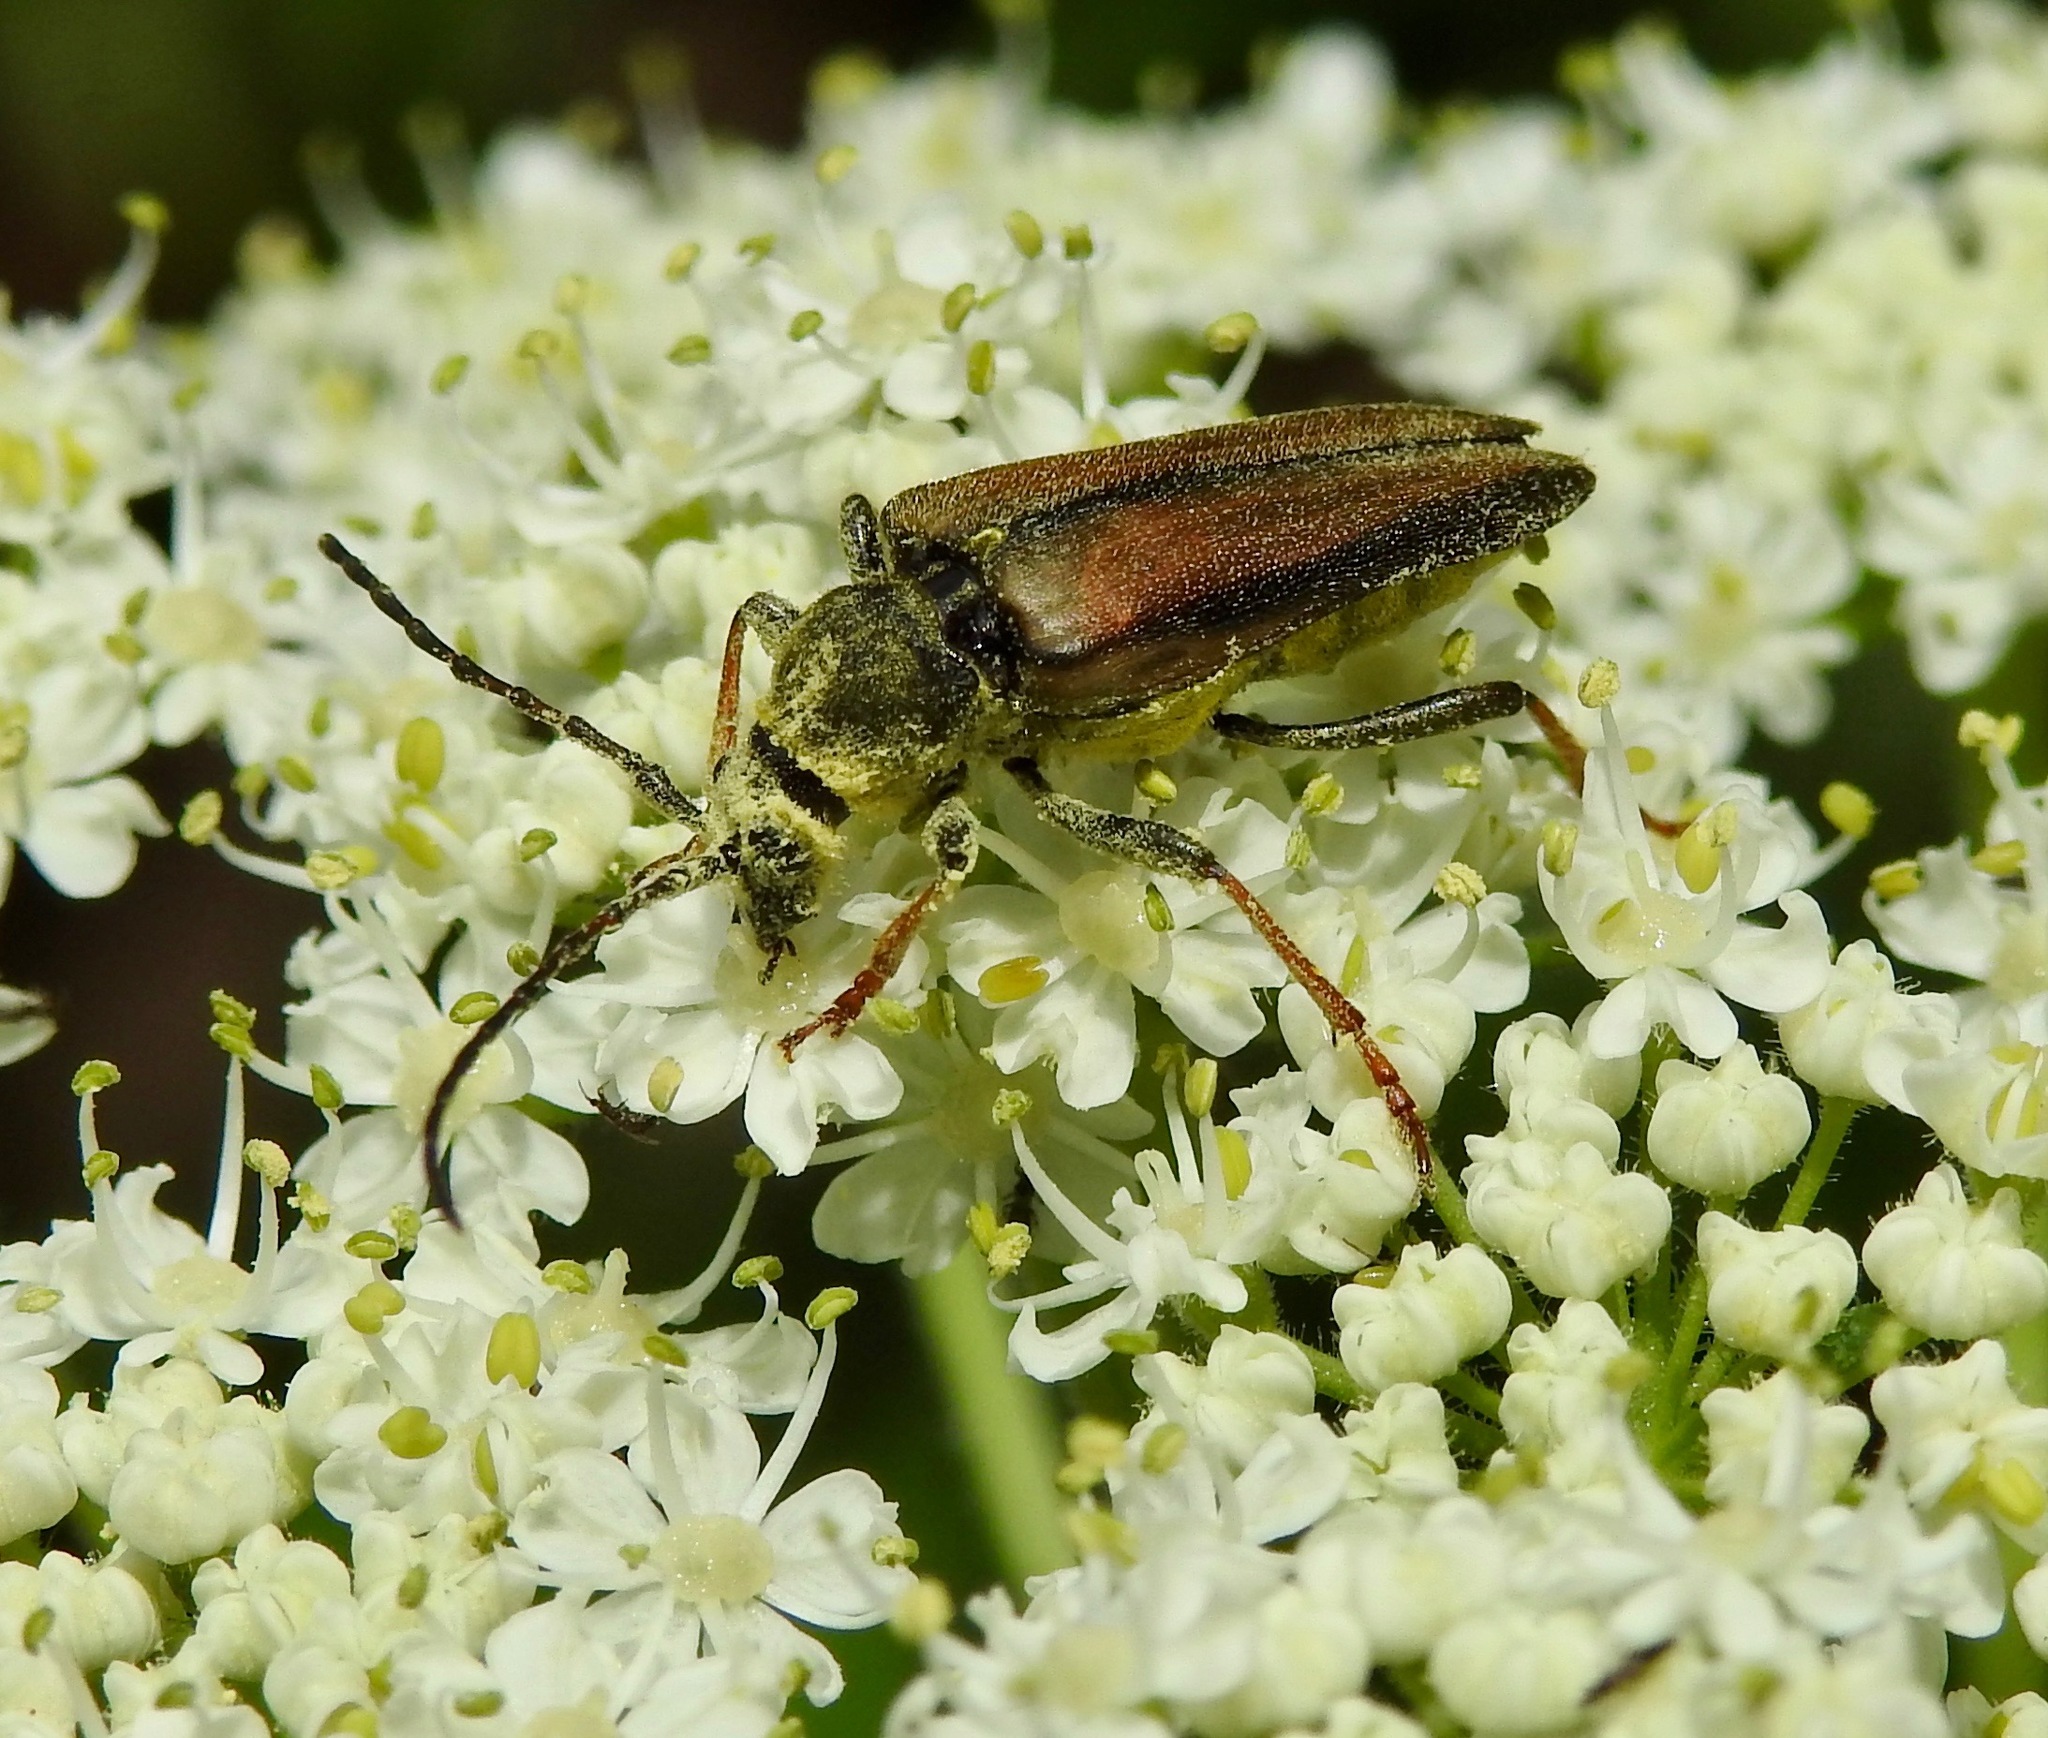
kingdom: Animalia
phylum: Arthropoda
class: Insecta
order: Coleoptera
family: Cerambycidae
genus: Lepturobosca
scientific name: Lepturobosca
